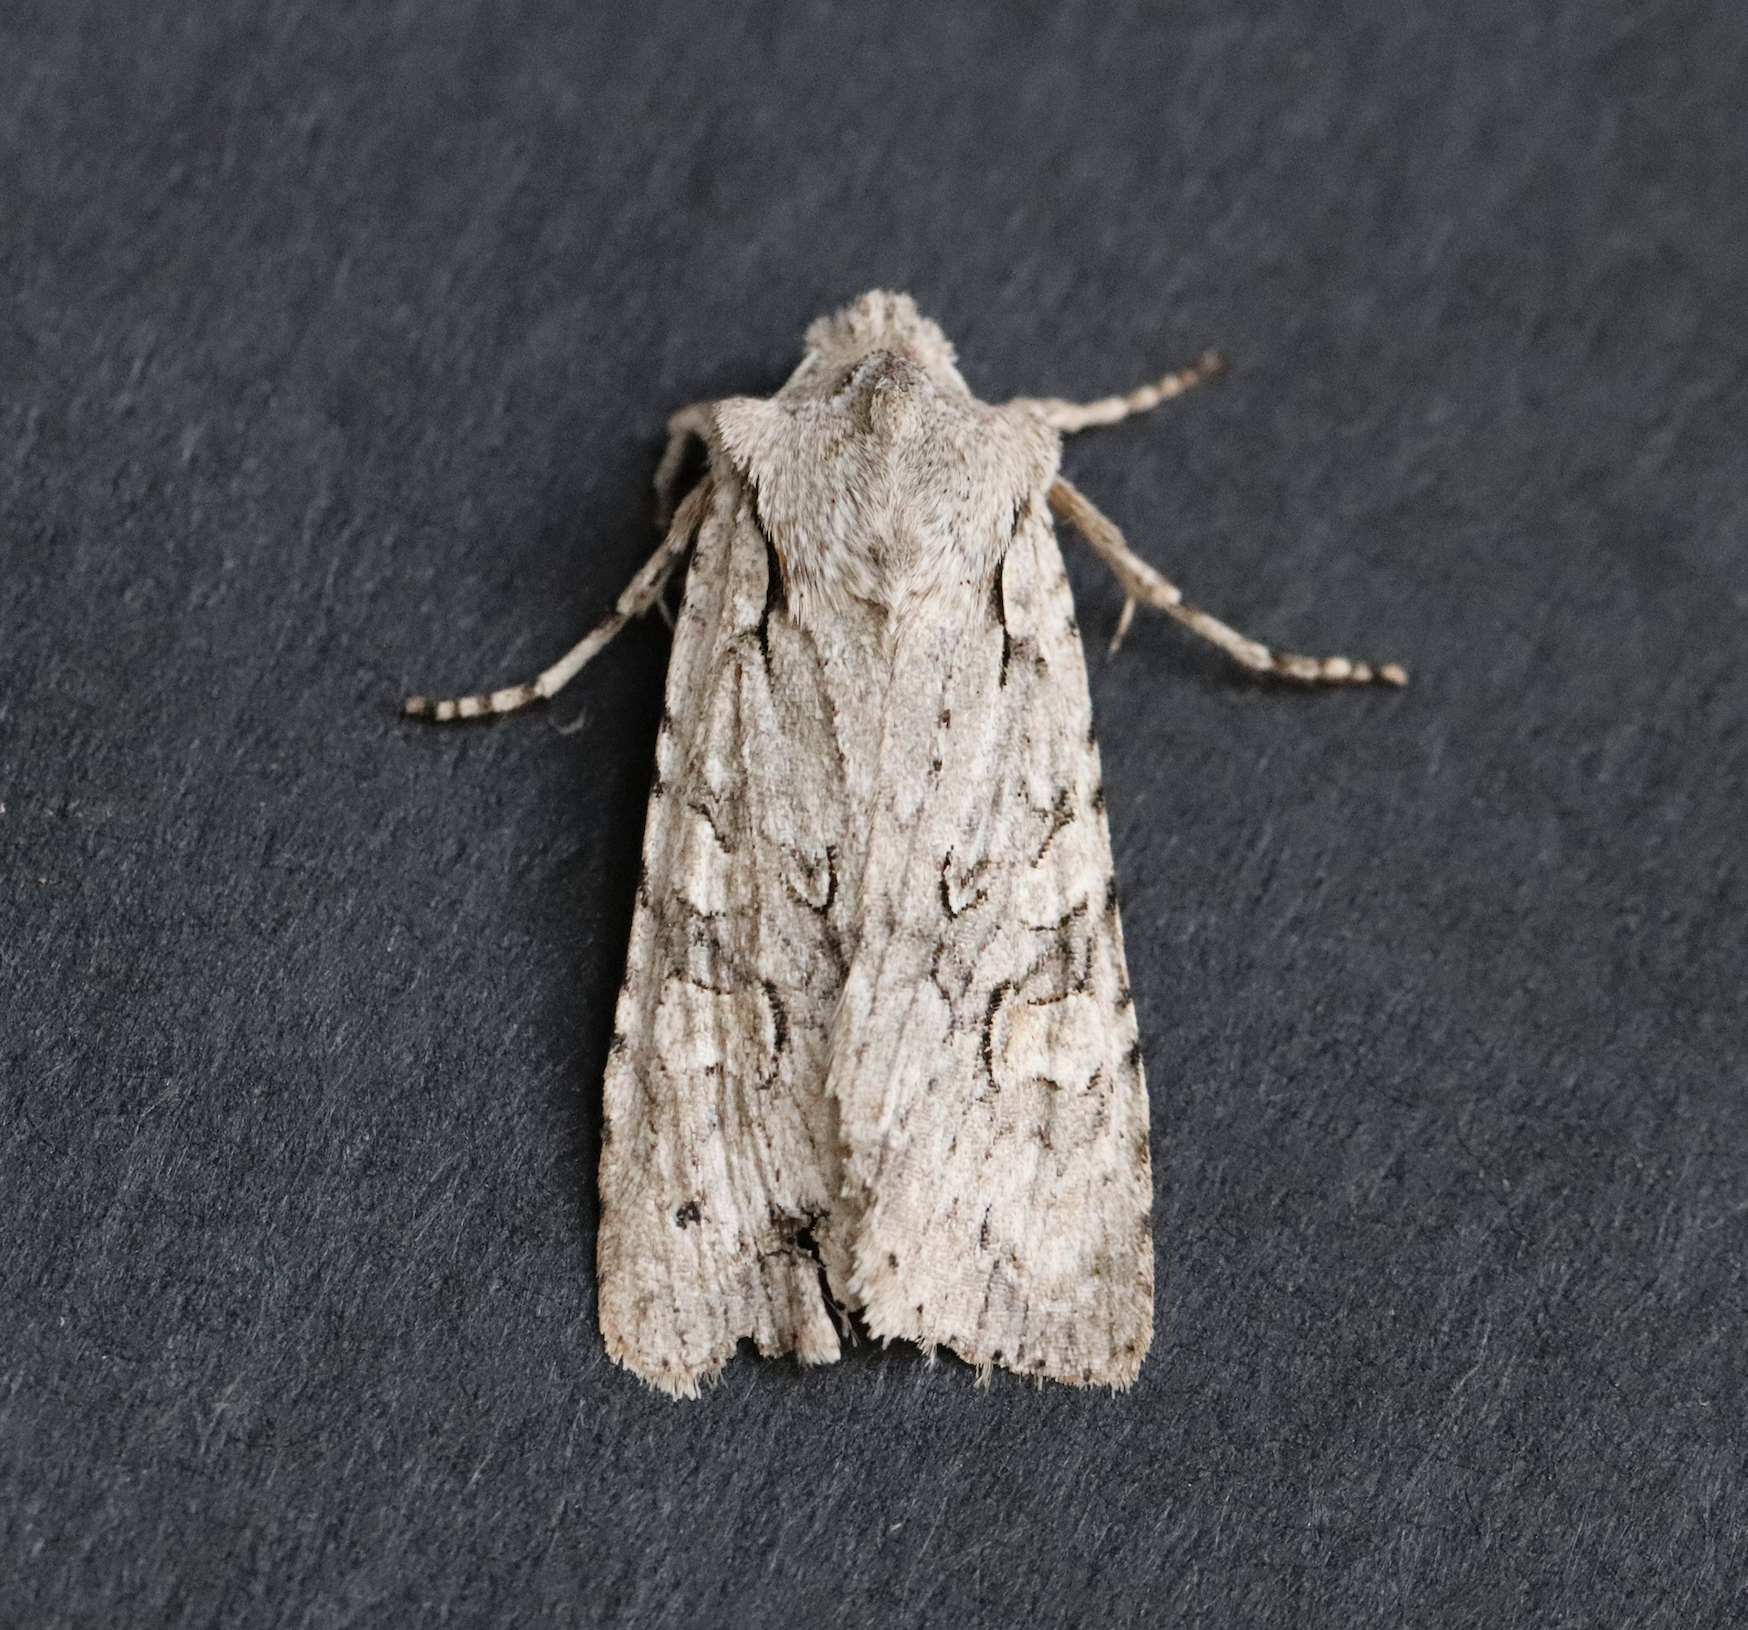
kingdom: Animalia
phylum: Arthropoda
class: Insecta
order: Lepidoptera
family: Noctuidae
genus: Lithophane
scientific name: Lithophane ornitopus
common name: Grey shoulder-knot
